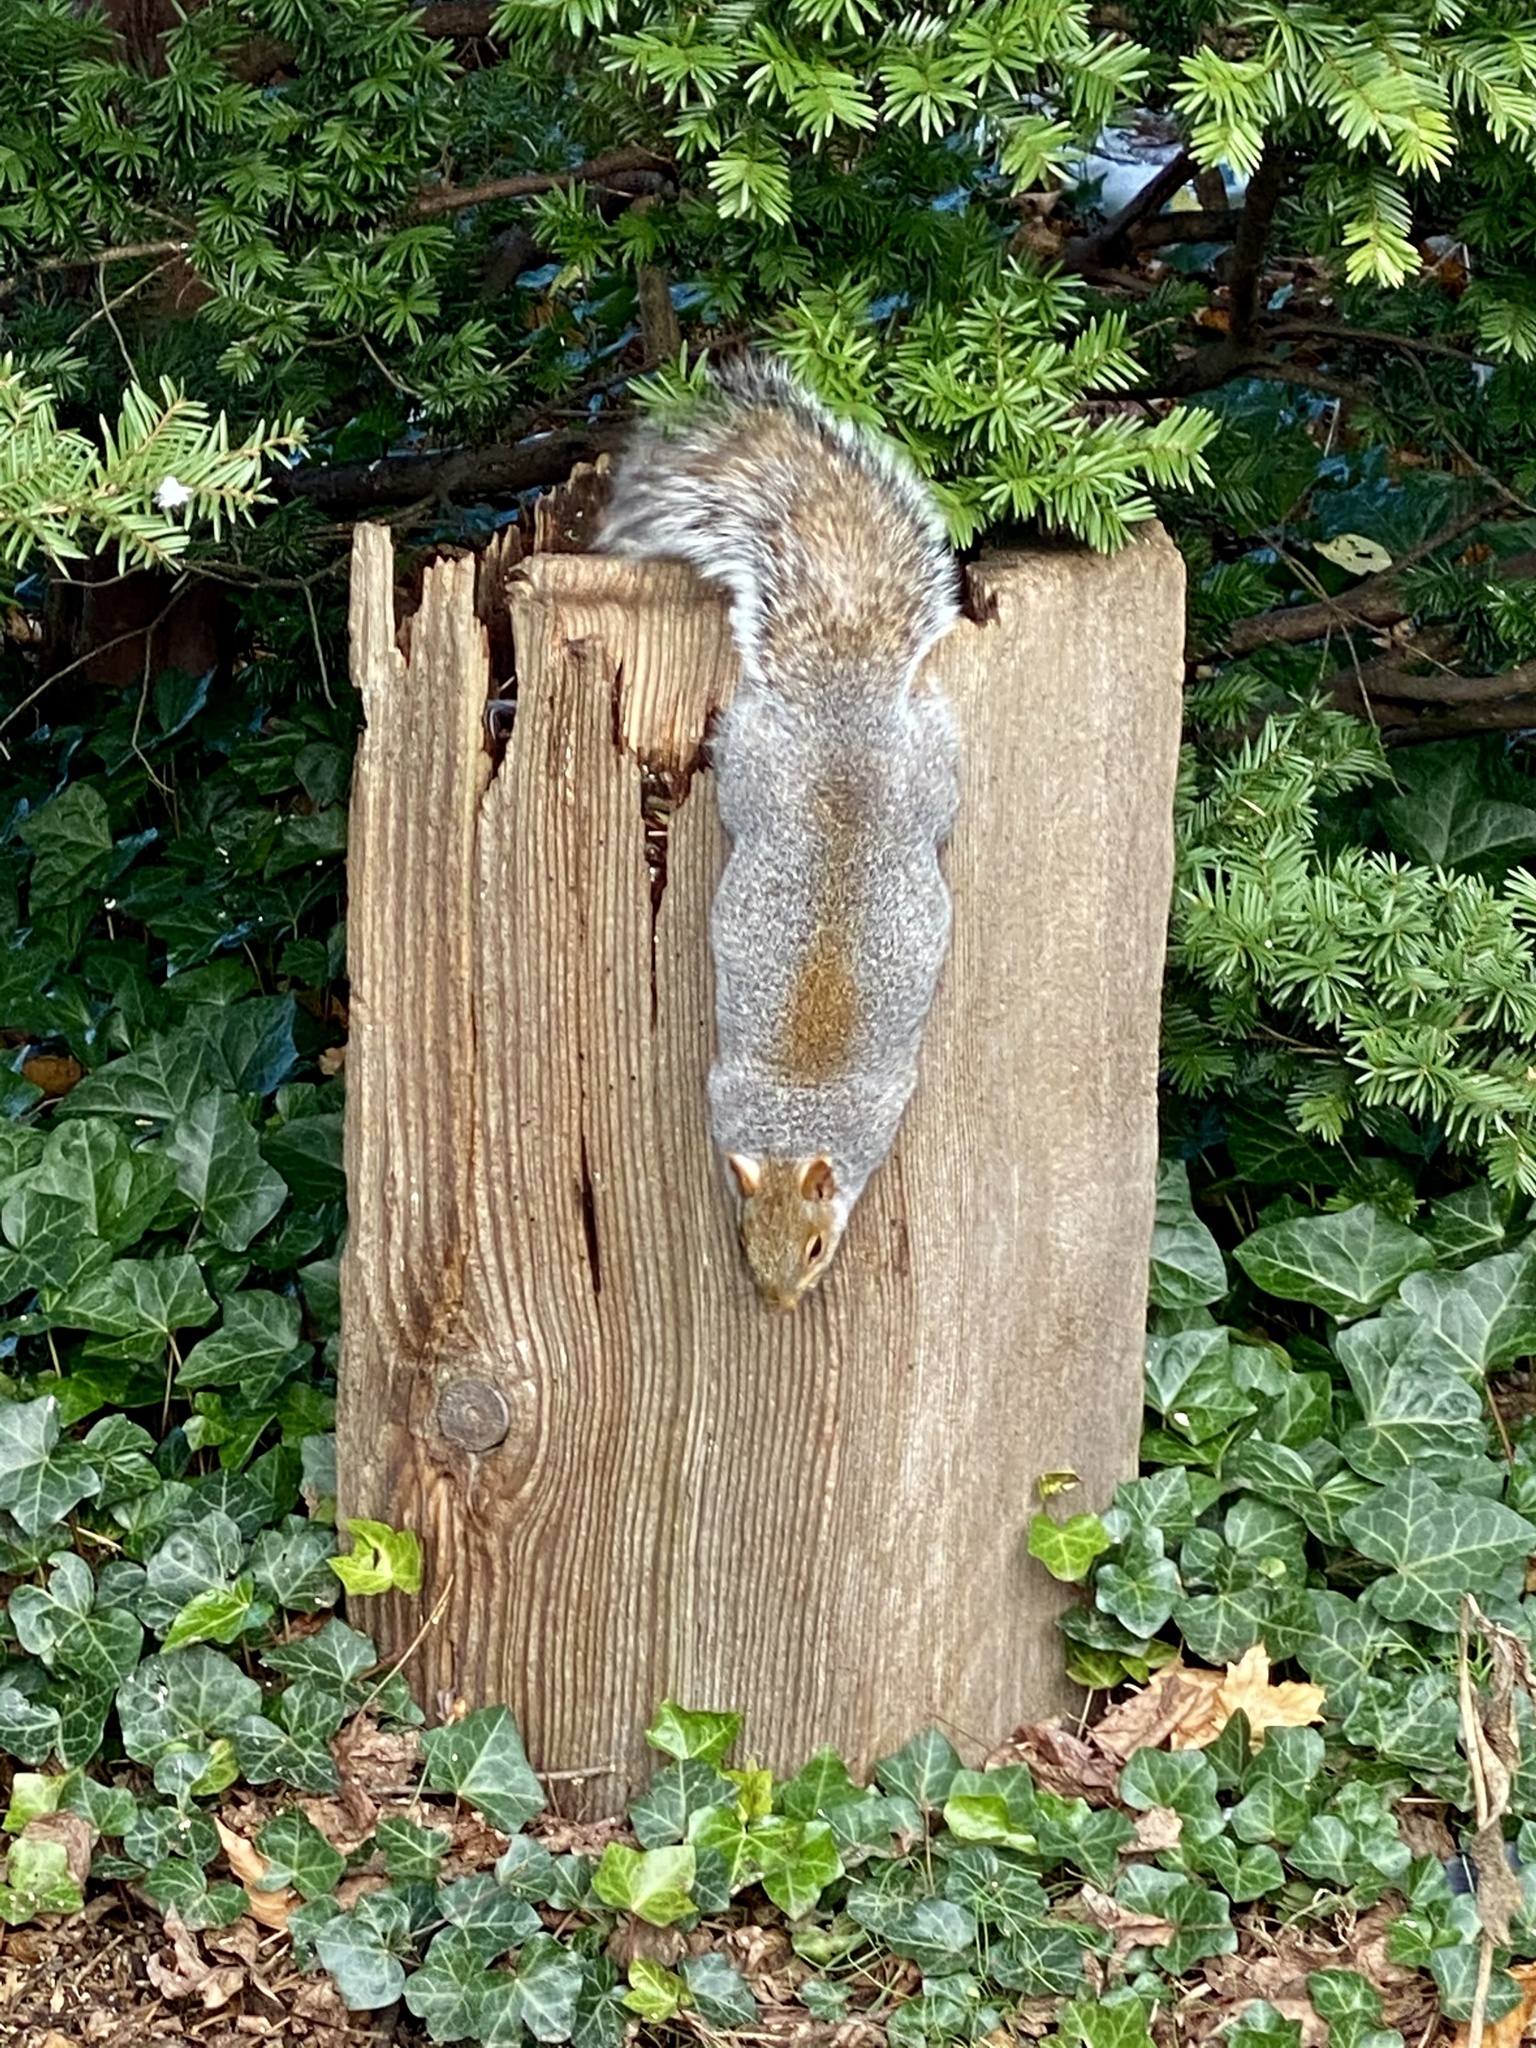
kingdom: Animalia
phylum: Chordata
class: Mammalia
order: Rodentia
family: Sciuridae
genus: Sciurus
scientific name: Sciurus carolinensis
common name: Eastern gray squirrel
